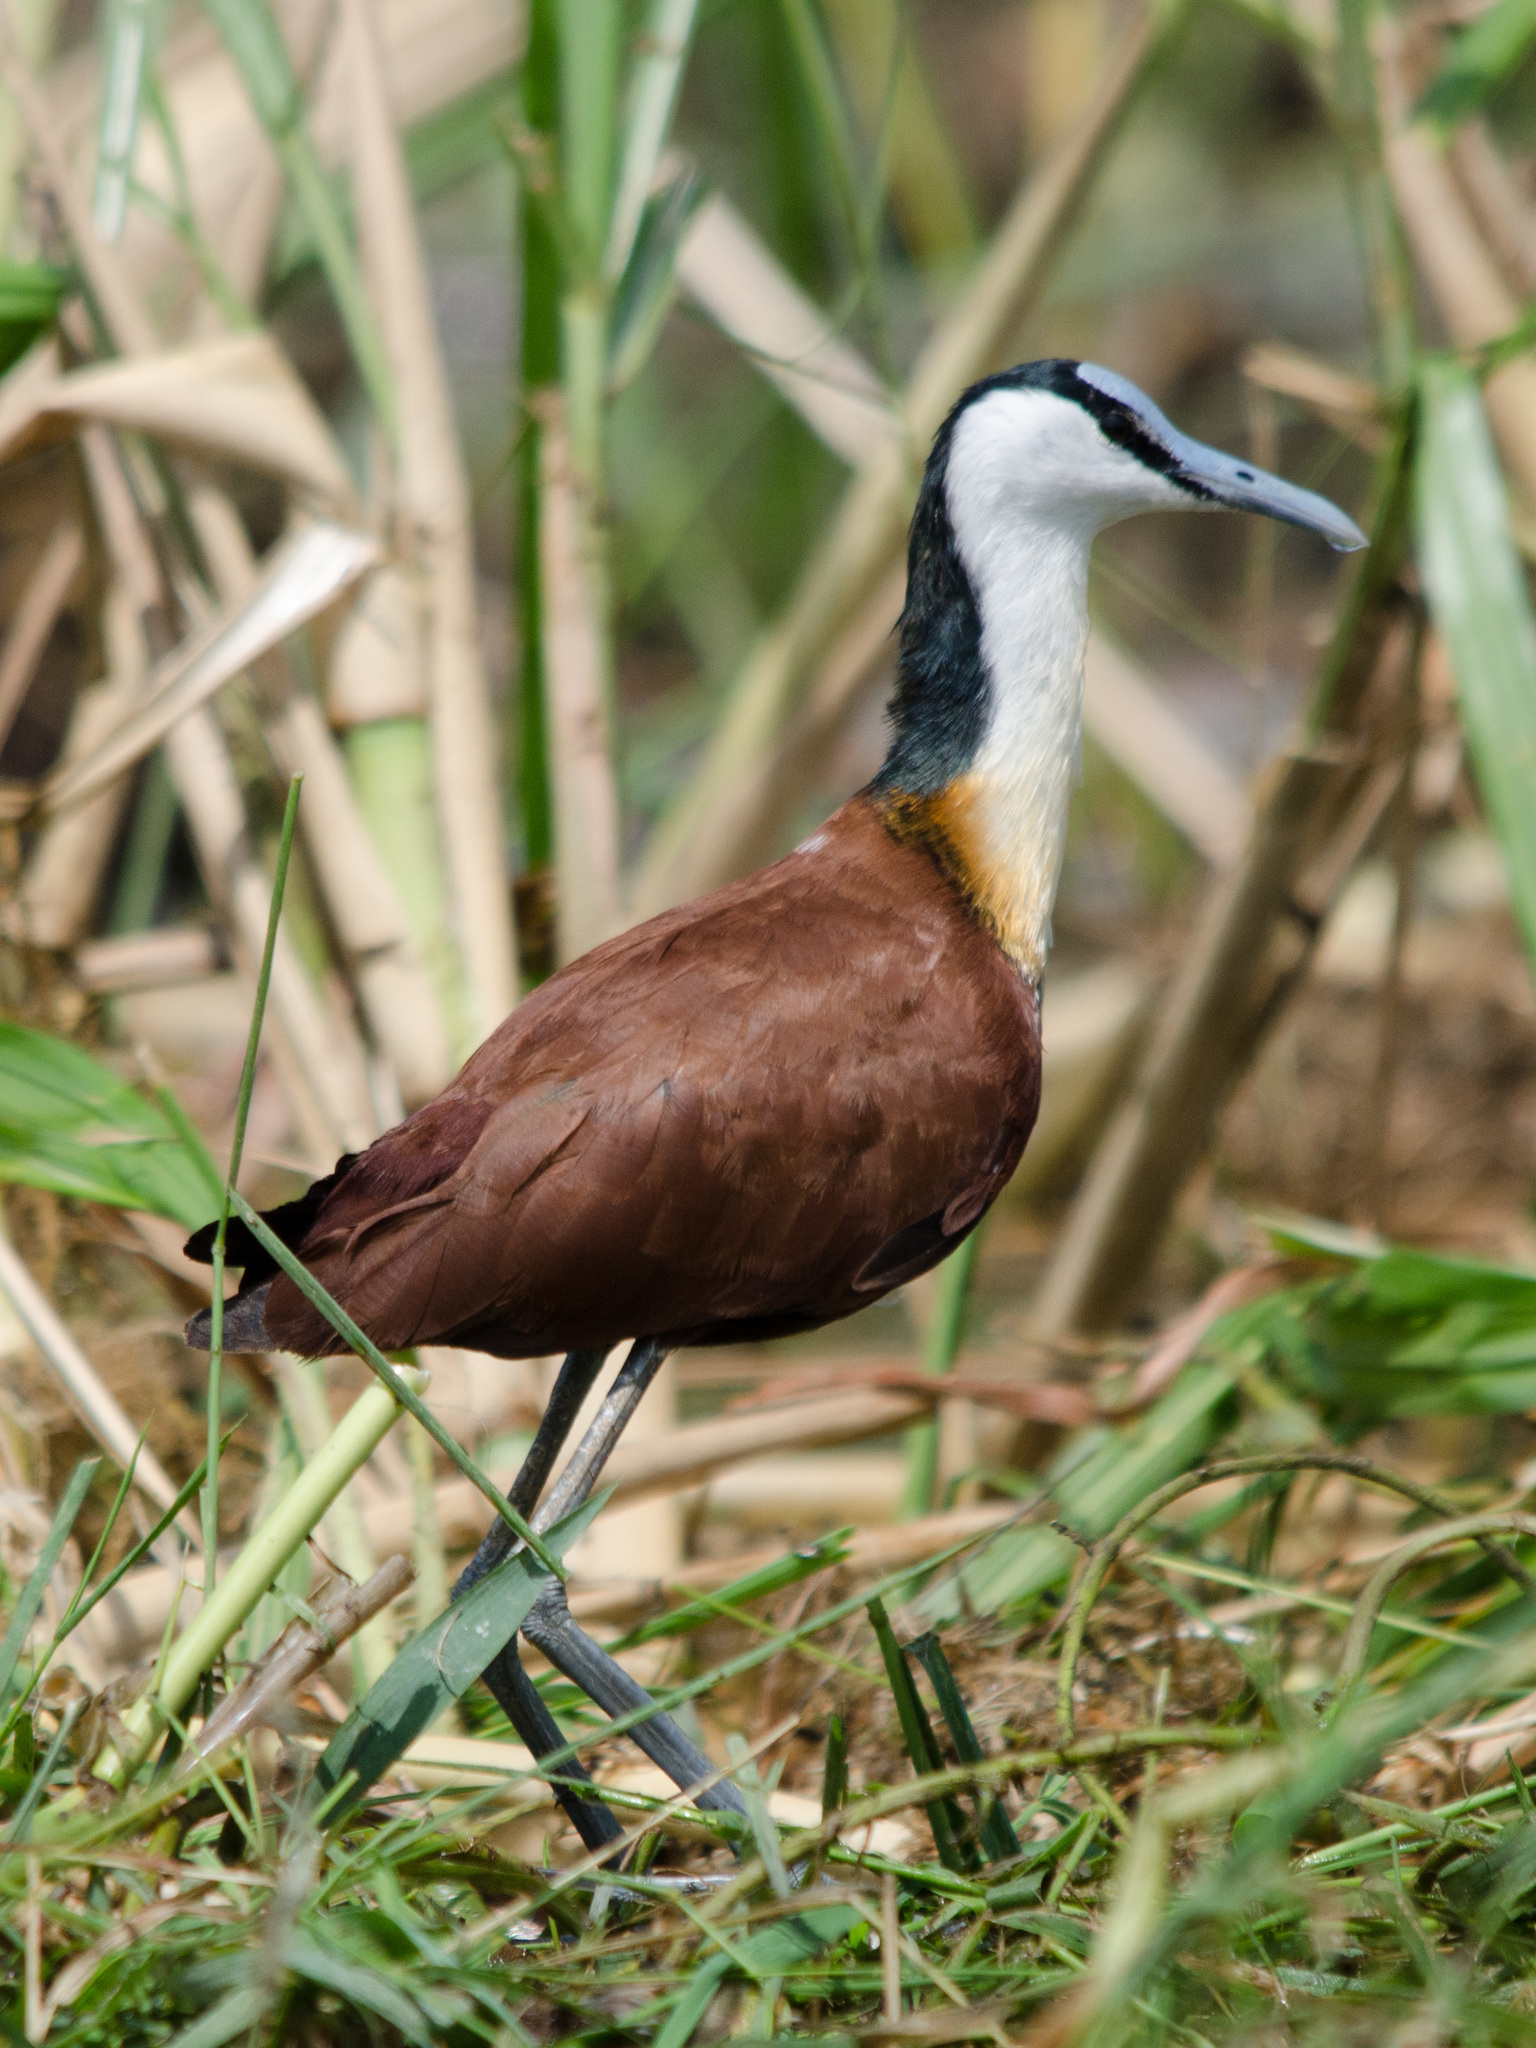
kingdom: Animalia
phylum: Chordata
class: Aves
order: Charadriiformes
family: Jacanidae
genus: Actophilornis
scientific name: Actophilornis africanus
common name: African jacana
